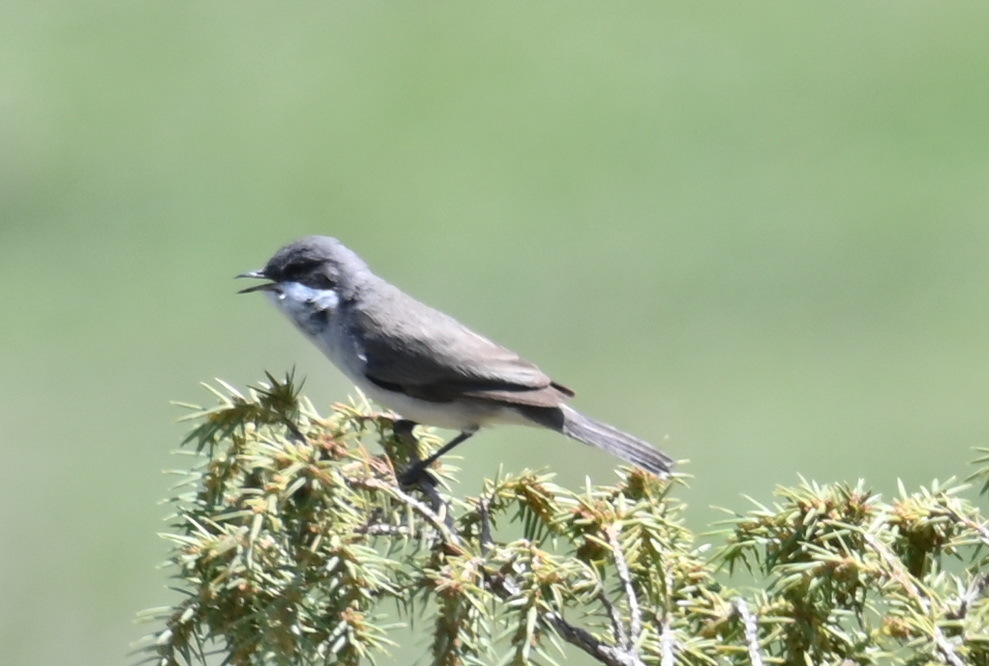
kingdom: Animalia
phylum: Chordata
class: Aves
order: Passeriformes
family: Sylviidae
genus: Sylvia
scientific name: Sylvia curruca
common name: Lesser whitethroat
